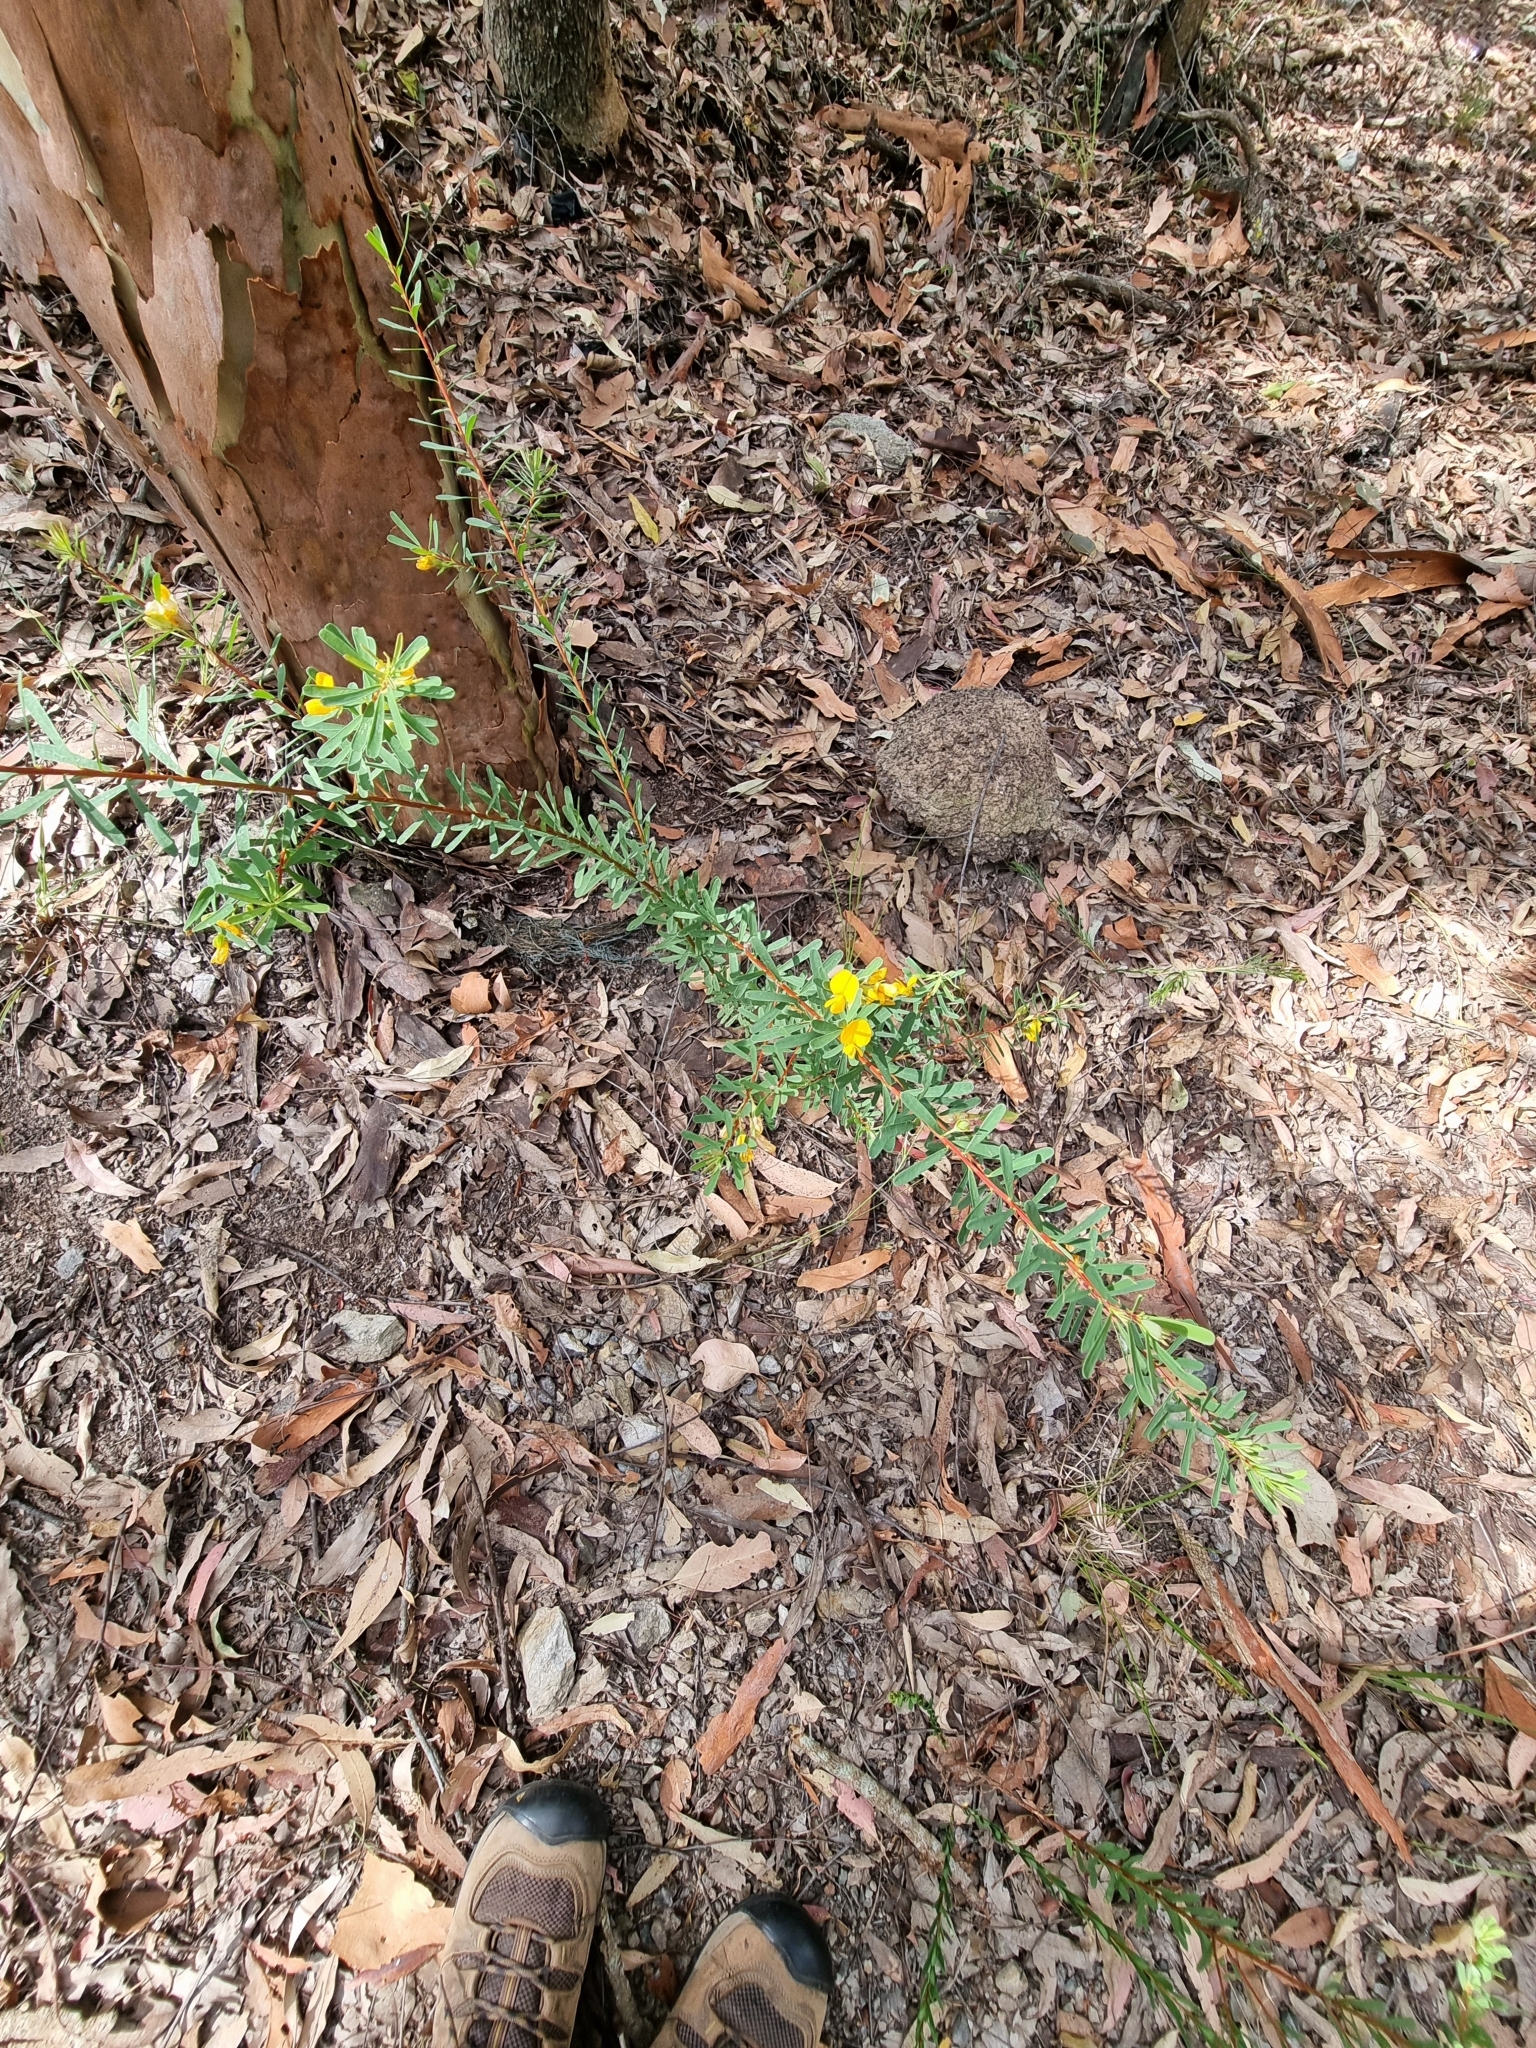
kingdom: Plantae
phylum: Tracheophyta
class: Magnoliopsida
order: Fabales
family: Fabaceae
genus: Pultenaea
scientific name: Pultenaea euchila
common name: Large-flower bush-pea
